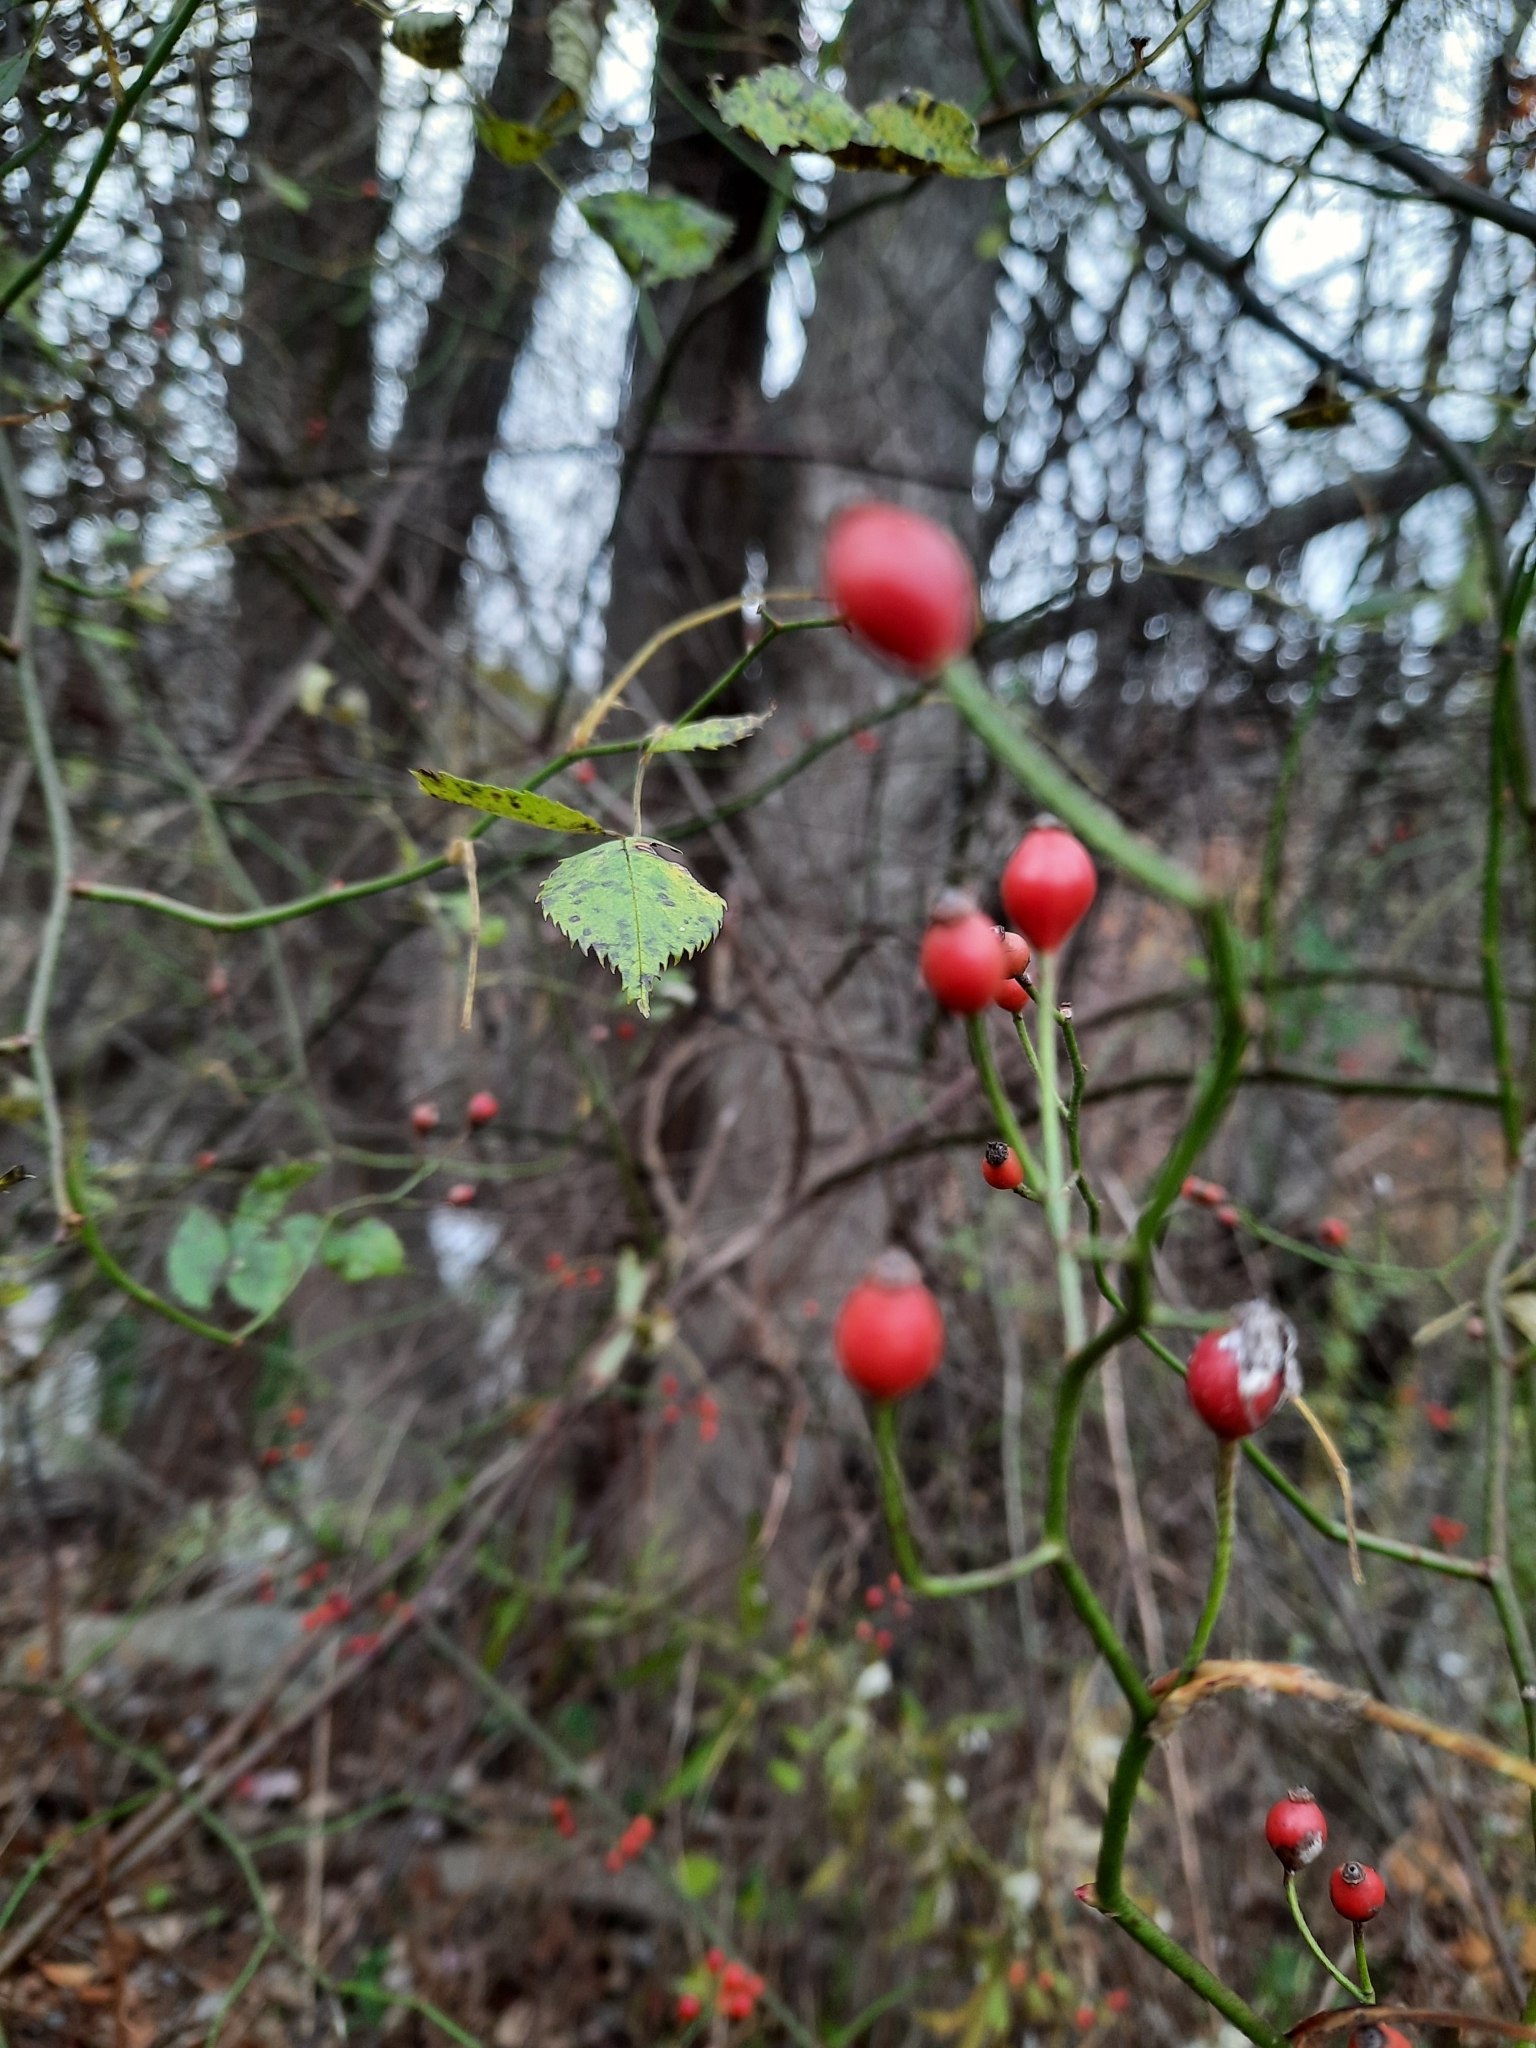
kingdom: Plantae
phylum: Tracheophyta
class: Magnoliopsida
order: Rosales
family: Rosaceae
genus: Rosa
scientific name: Rosa multiflora
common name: Multiflora rose
